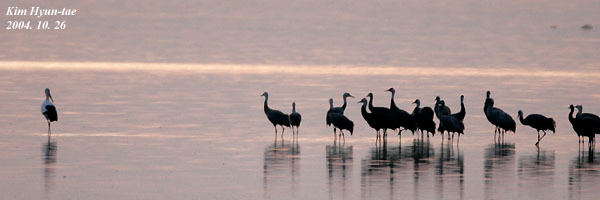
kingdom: Animalia
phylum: Chordata
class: Aves
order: Ciconiiformes
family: Ciconiidae
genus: Ciconia
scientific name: Ciconia boyciana
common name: Oriental stork
